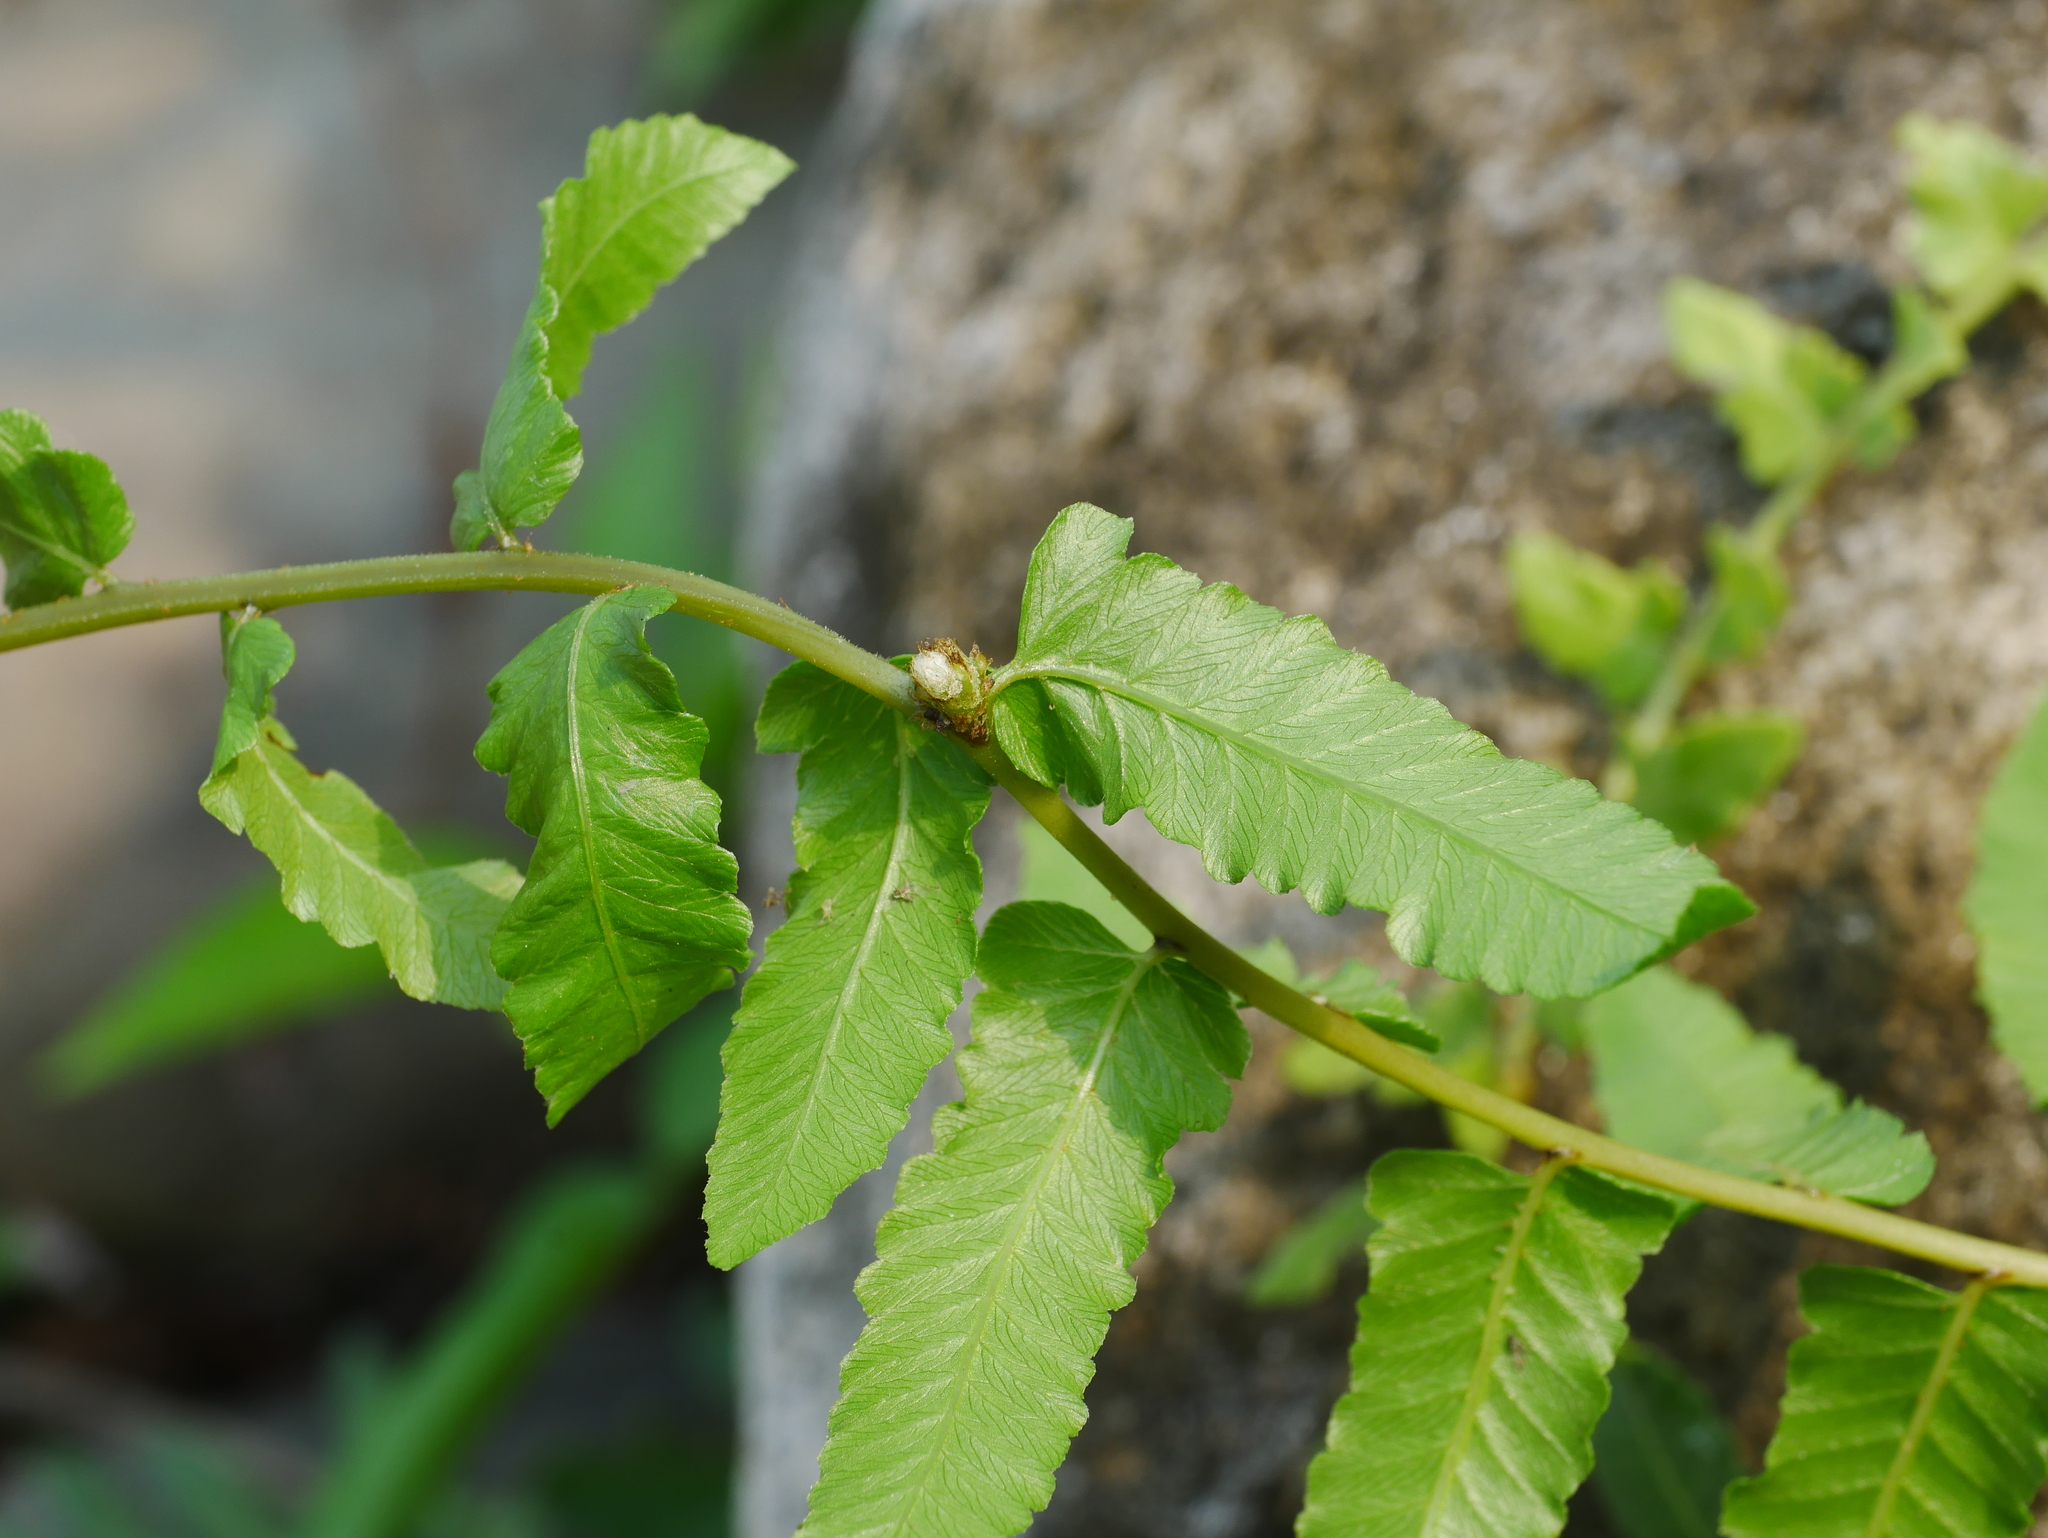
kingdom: Plantae
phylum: Tracheophyta
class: Polypodiopsida
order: Polypodiales
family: Thelypteridaceae
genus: Ampelopteris
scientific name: Ampelopteris prolifera
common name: Riverine scrambler
